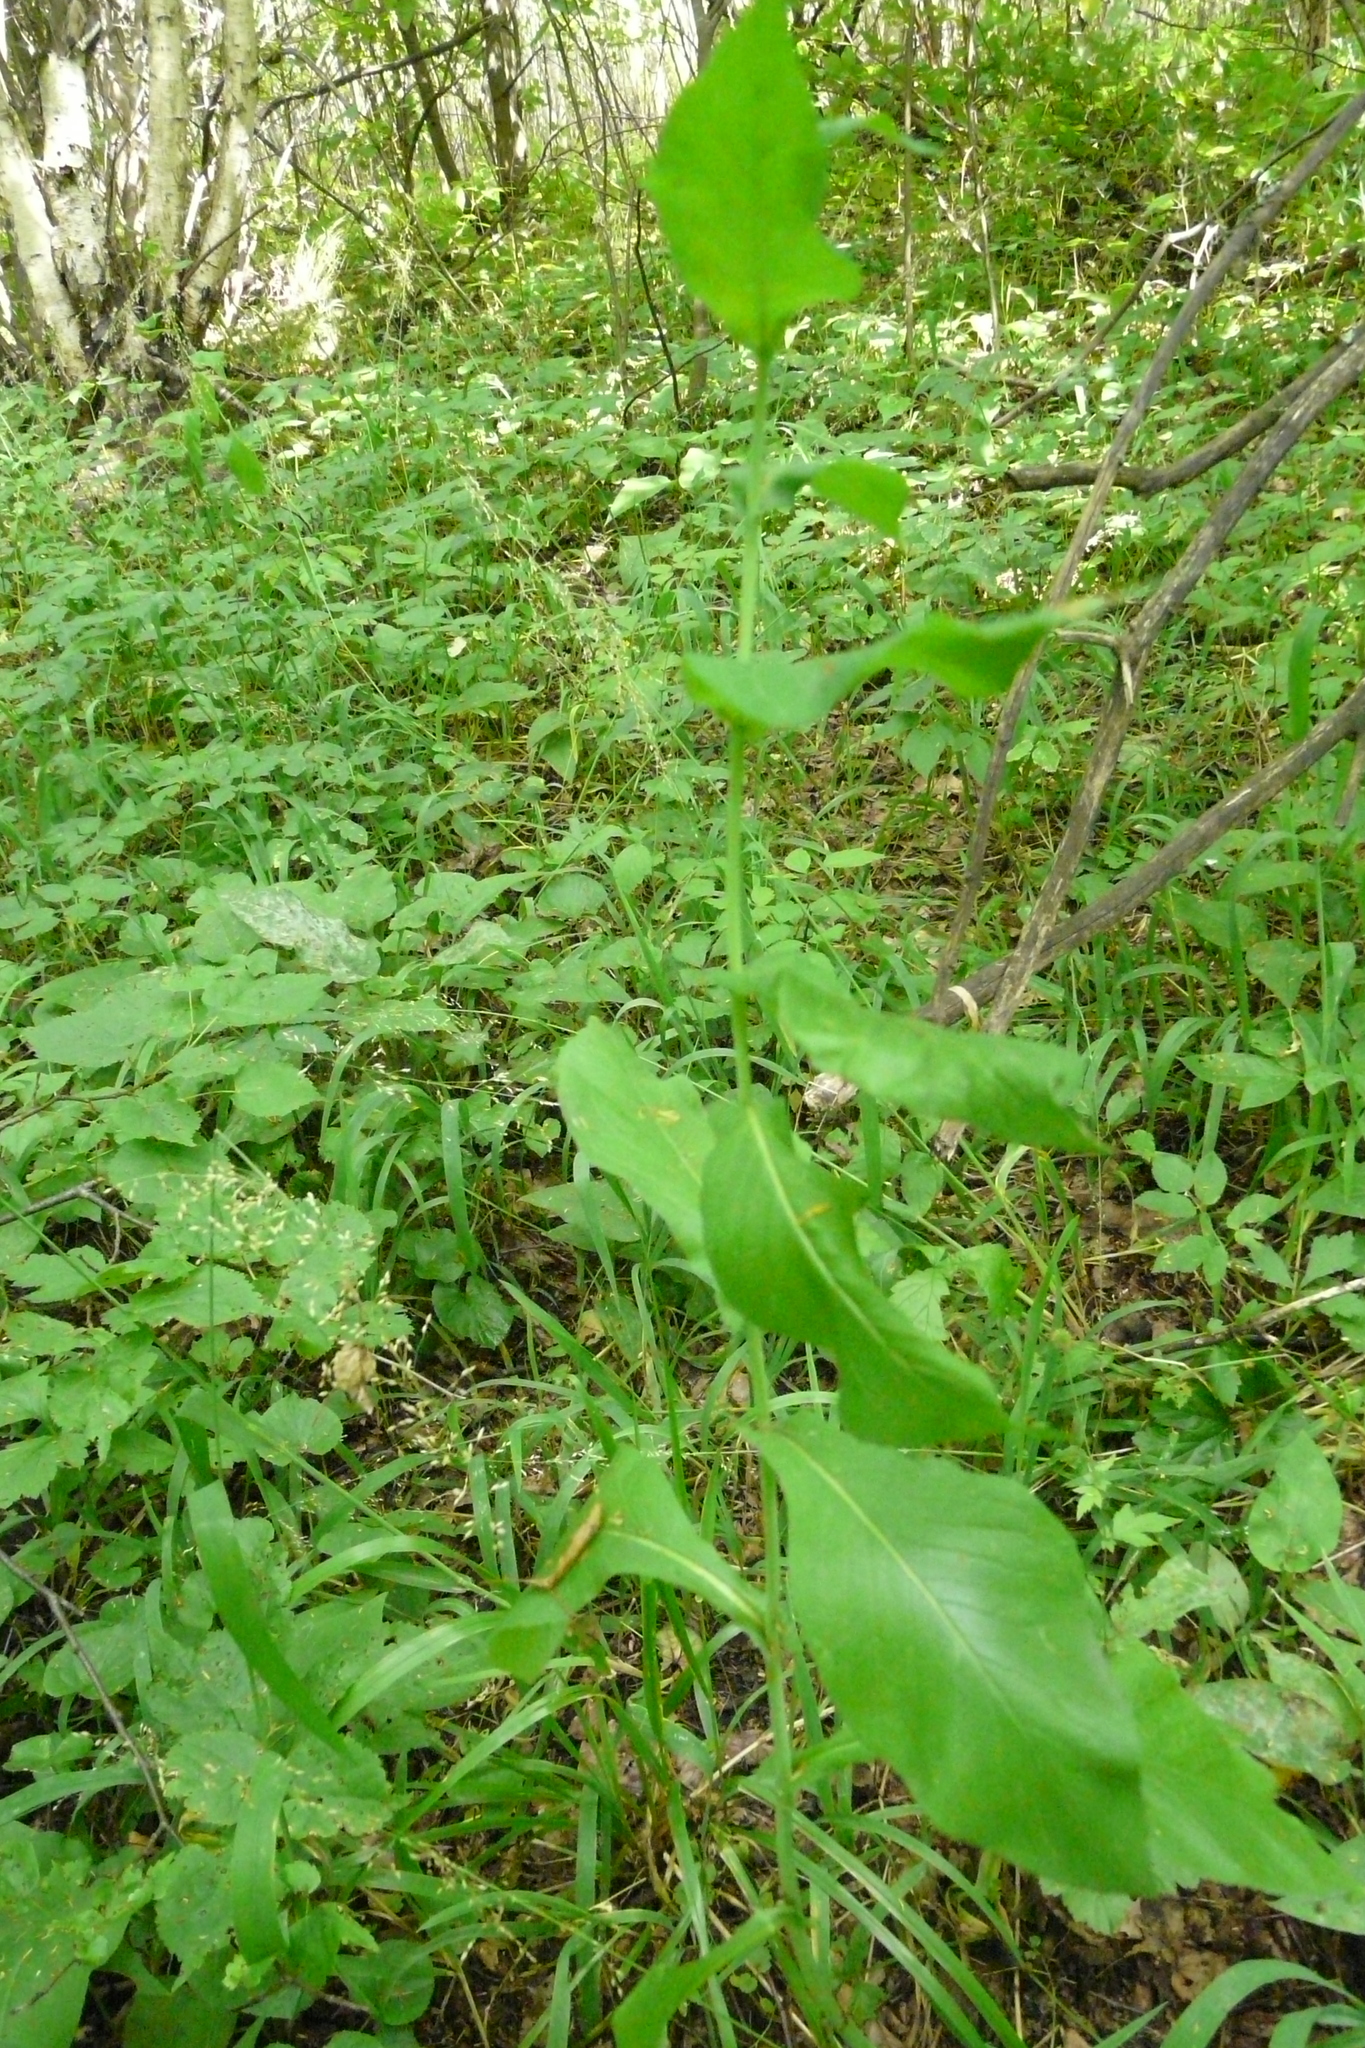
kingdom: Plantae
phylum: Tracheophyta
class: Magnoliopsida
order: Asterales
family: Asteraceae
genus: Lactuca
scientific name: Lactuca quercina
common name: Wild lettuce
